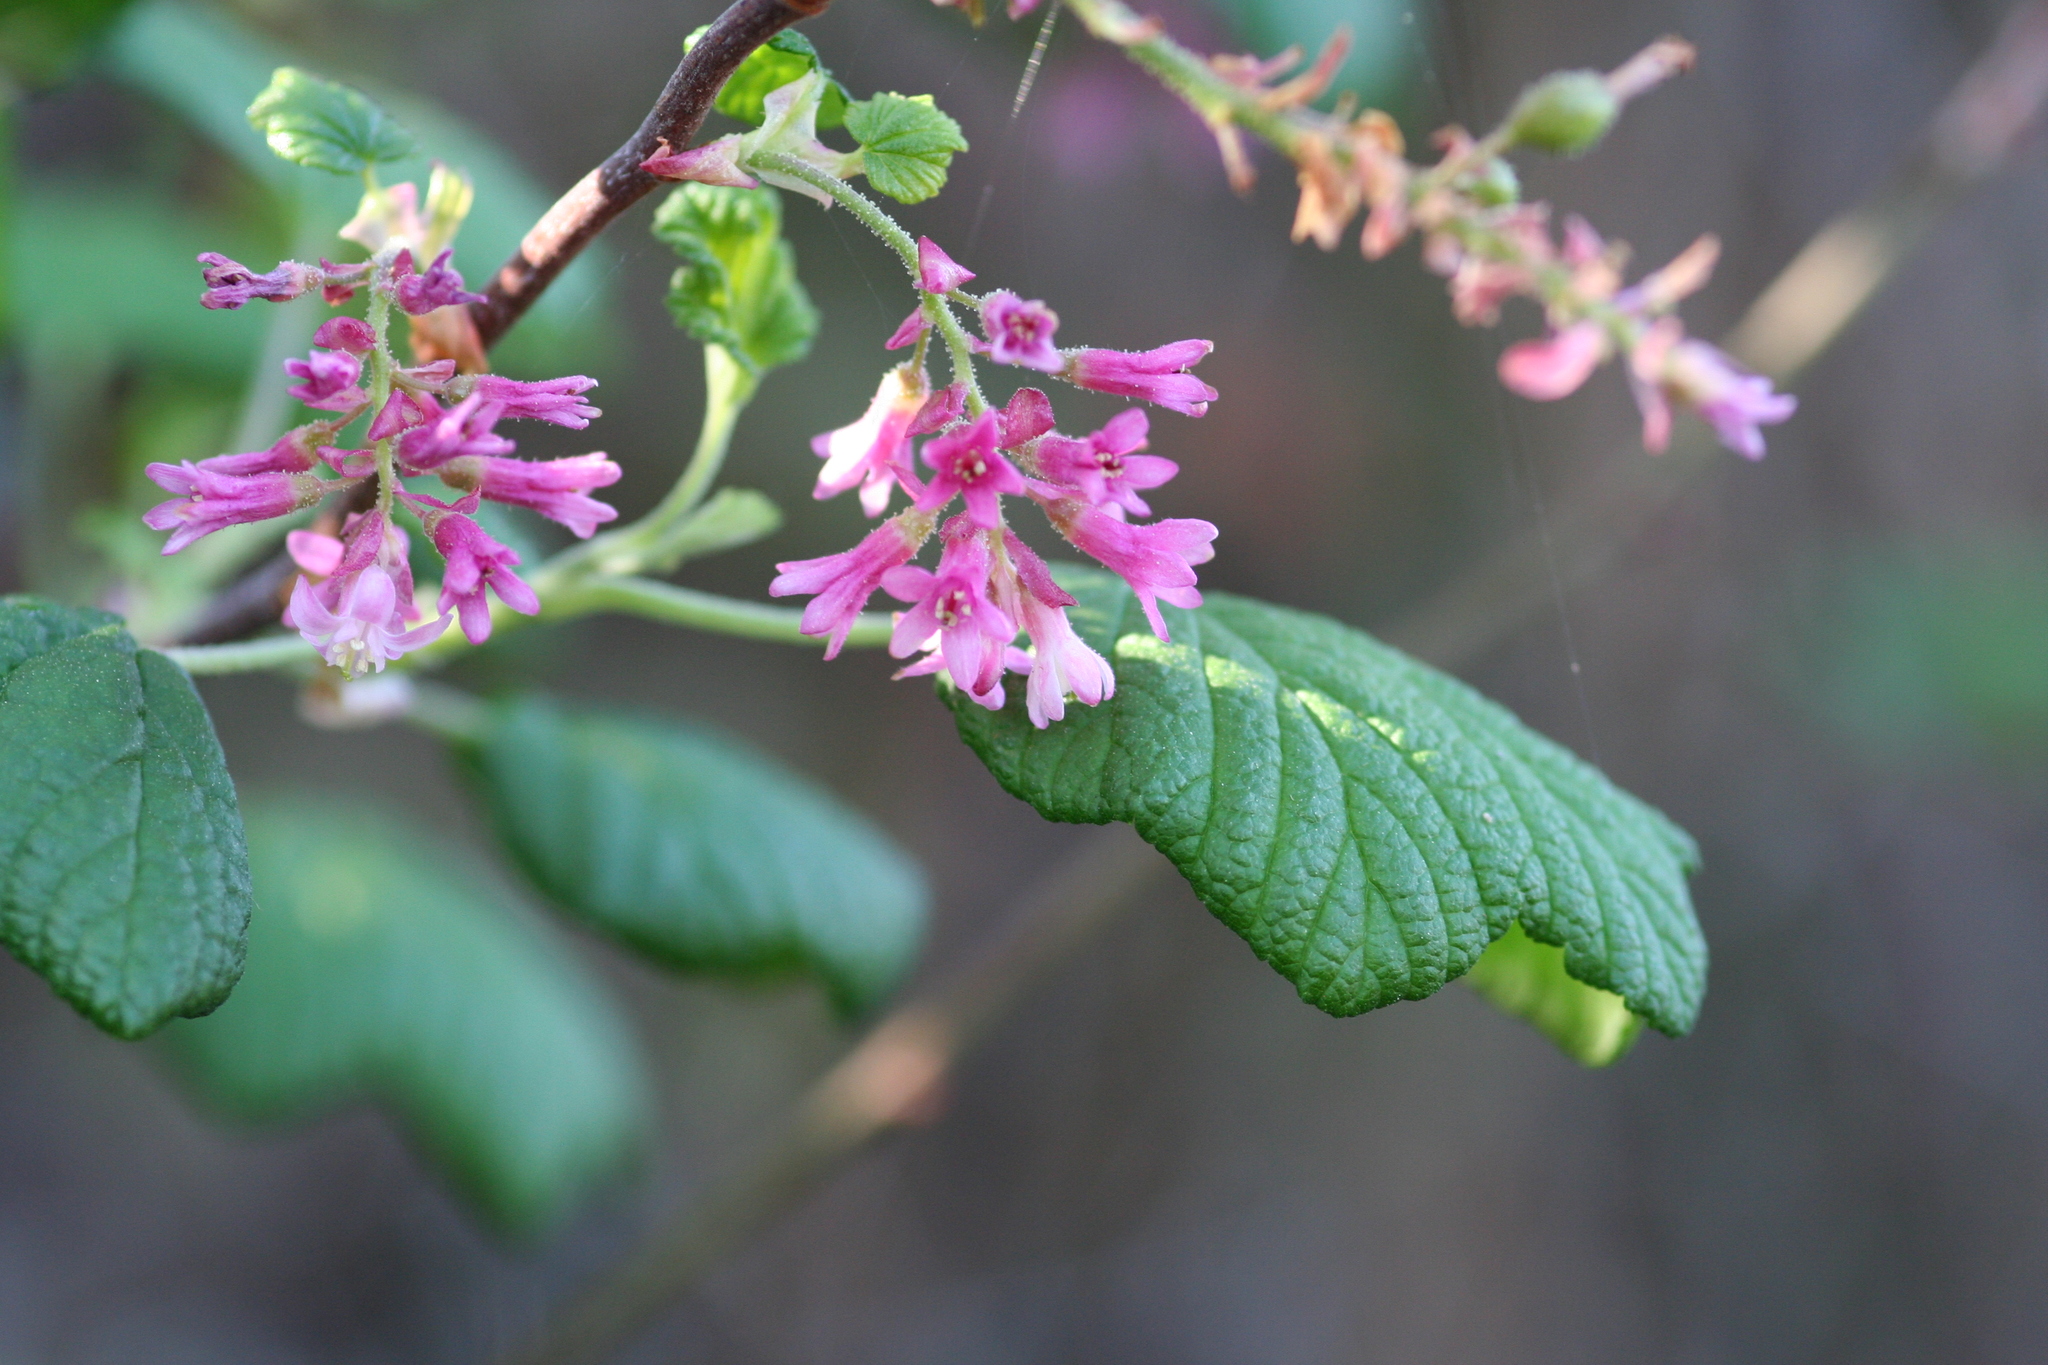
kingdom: Plantae
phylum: Tracheophyta
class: Magnoliopsida
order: Saxifragales
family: Grossulariaceae
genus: Ribes
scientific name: Ribes sanguineum
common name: Flowering currant
